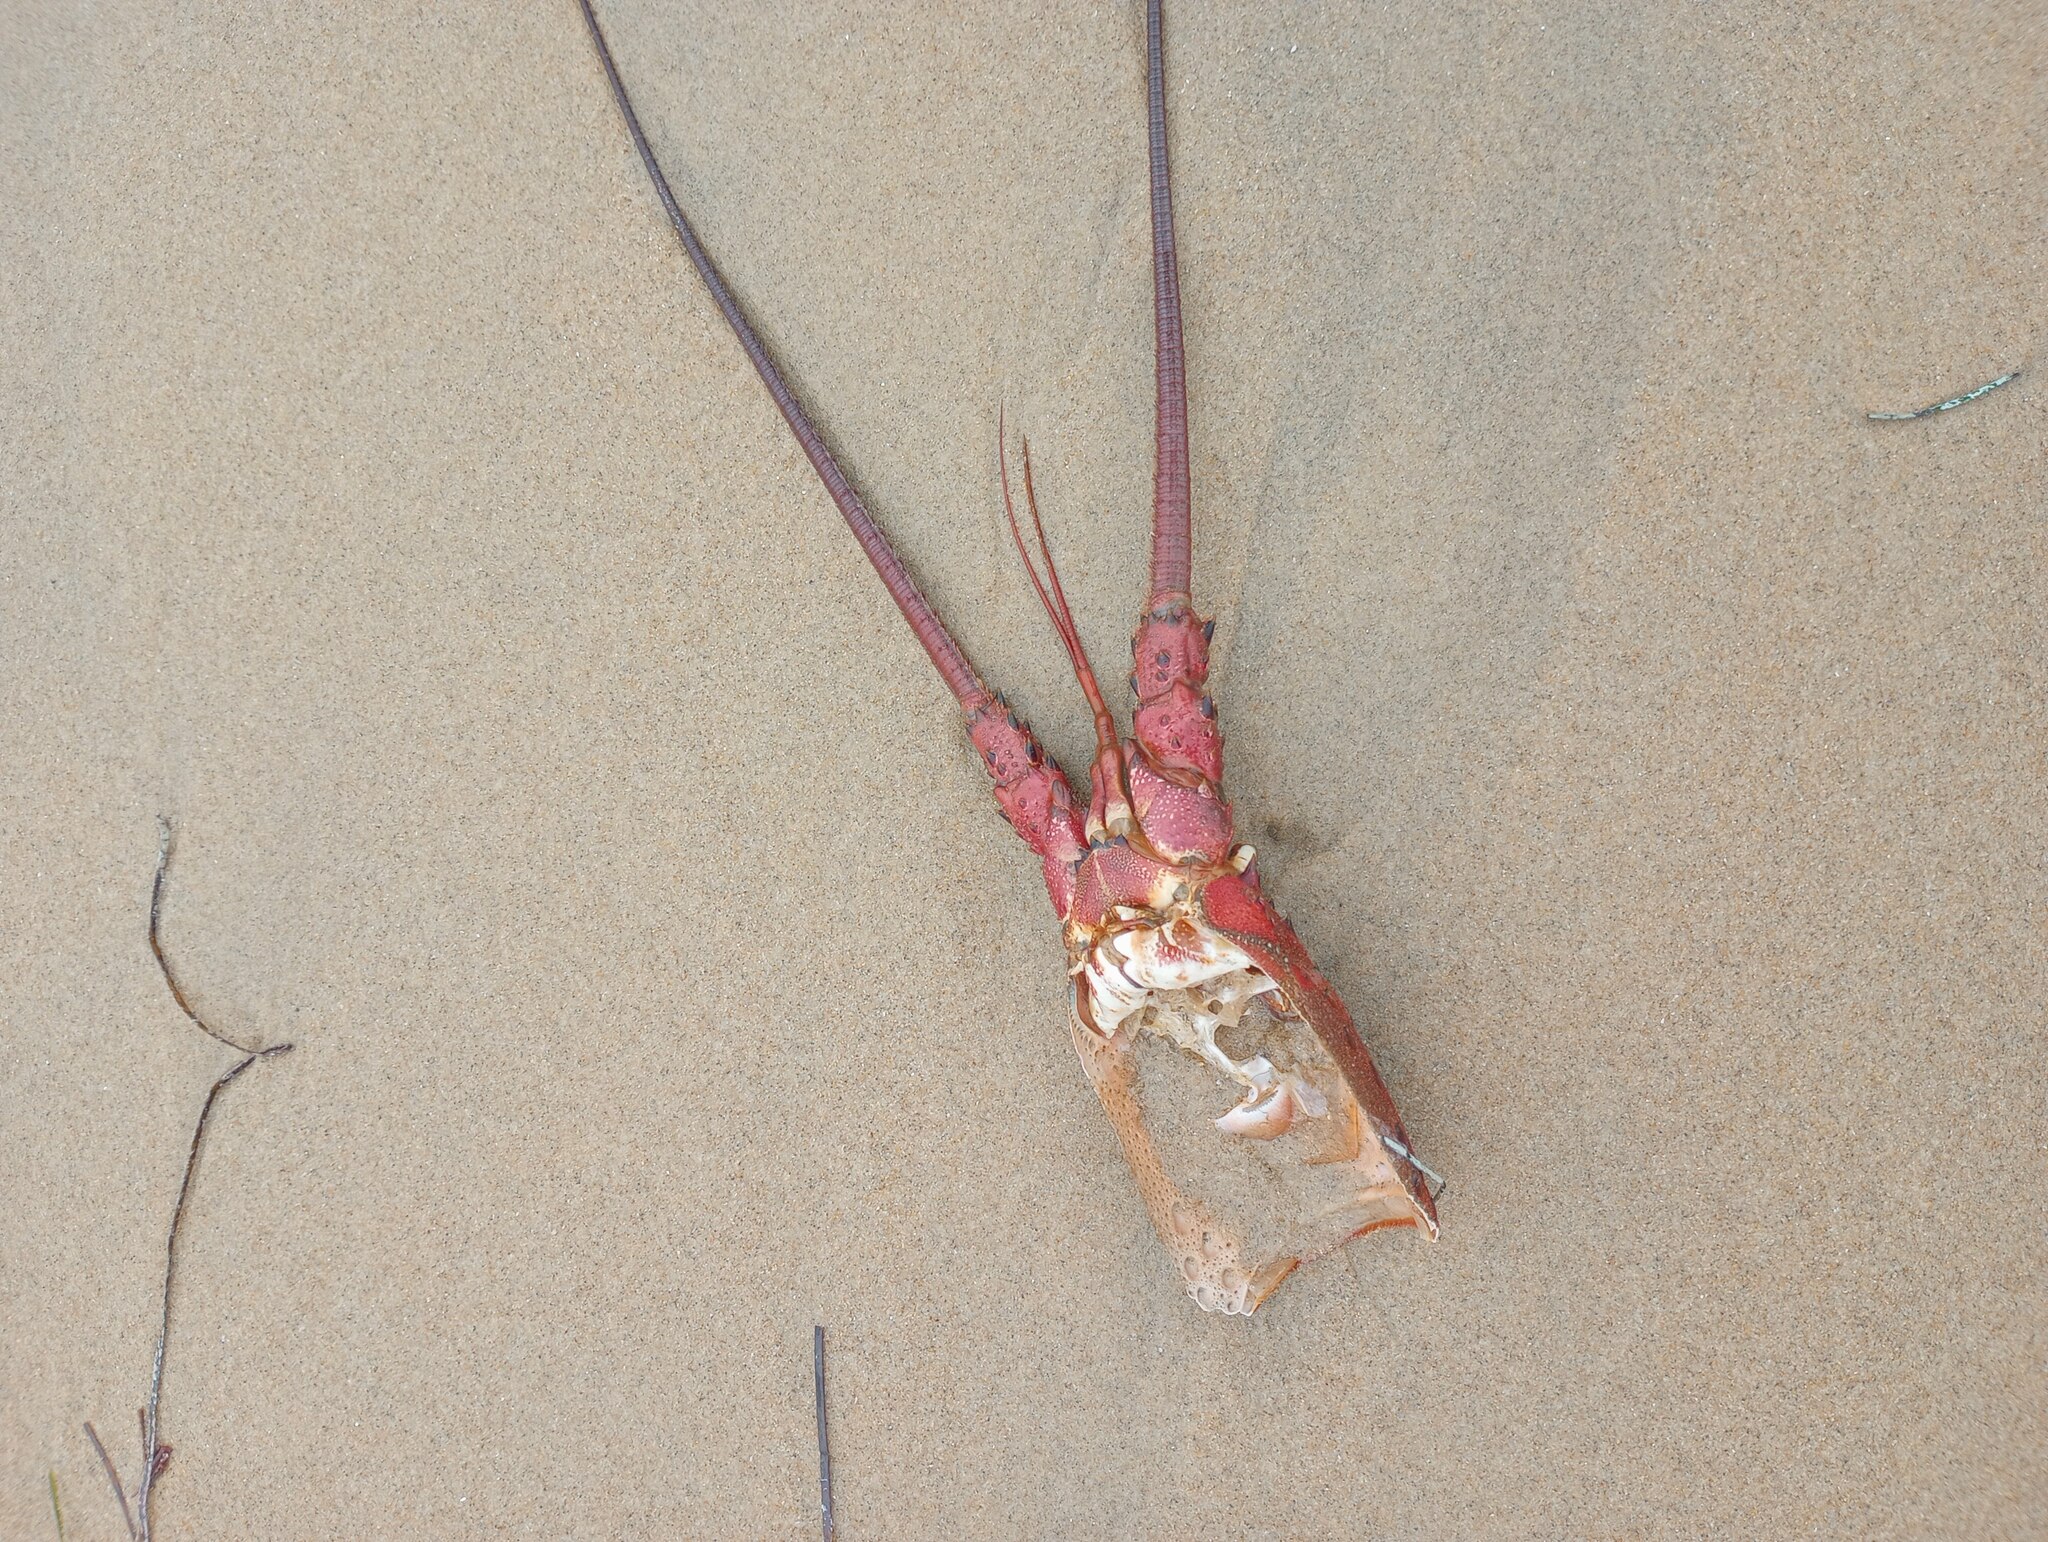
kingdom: Animalia
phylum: Arthropoda
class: Malacostraca
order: Decapoda
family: Palinuridae
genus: Panulirus
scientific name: Panulirus interruptus
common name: California spiny lobster
